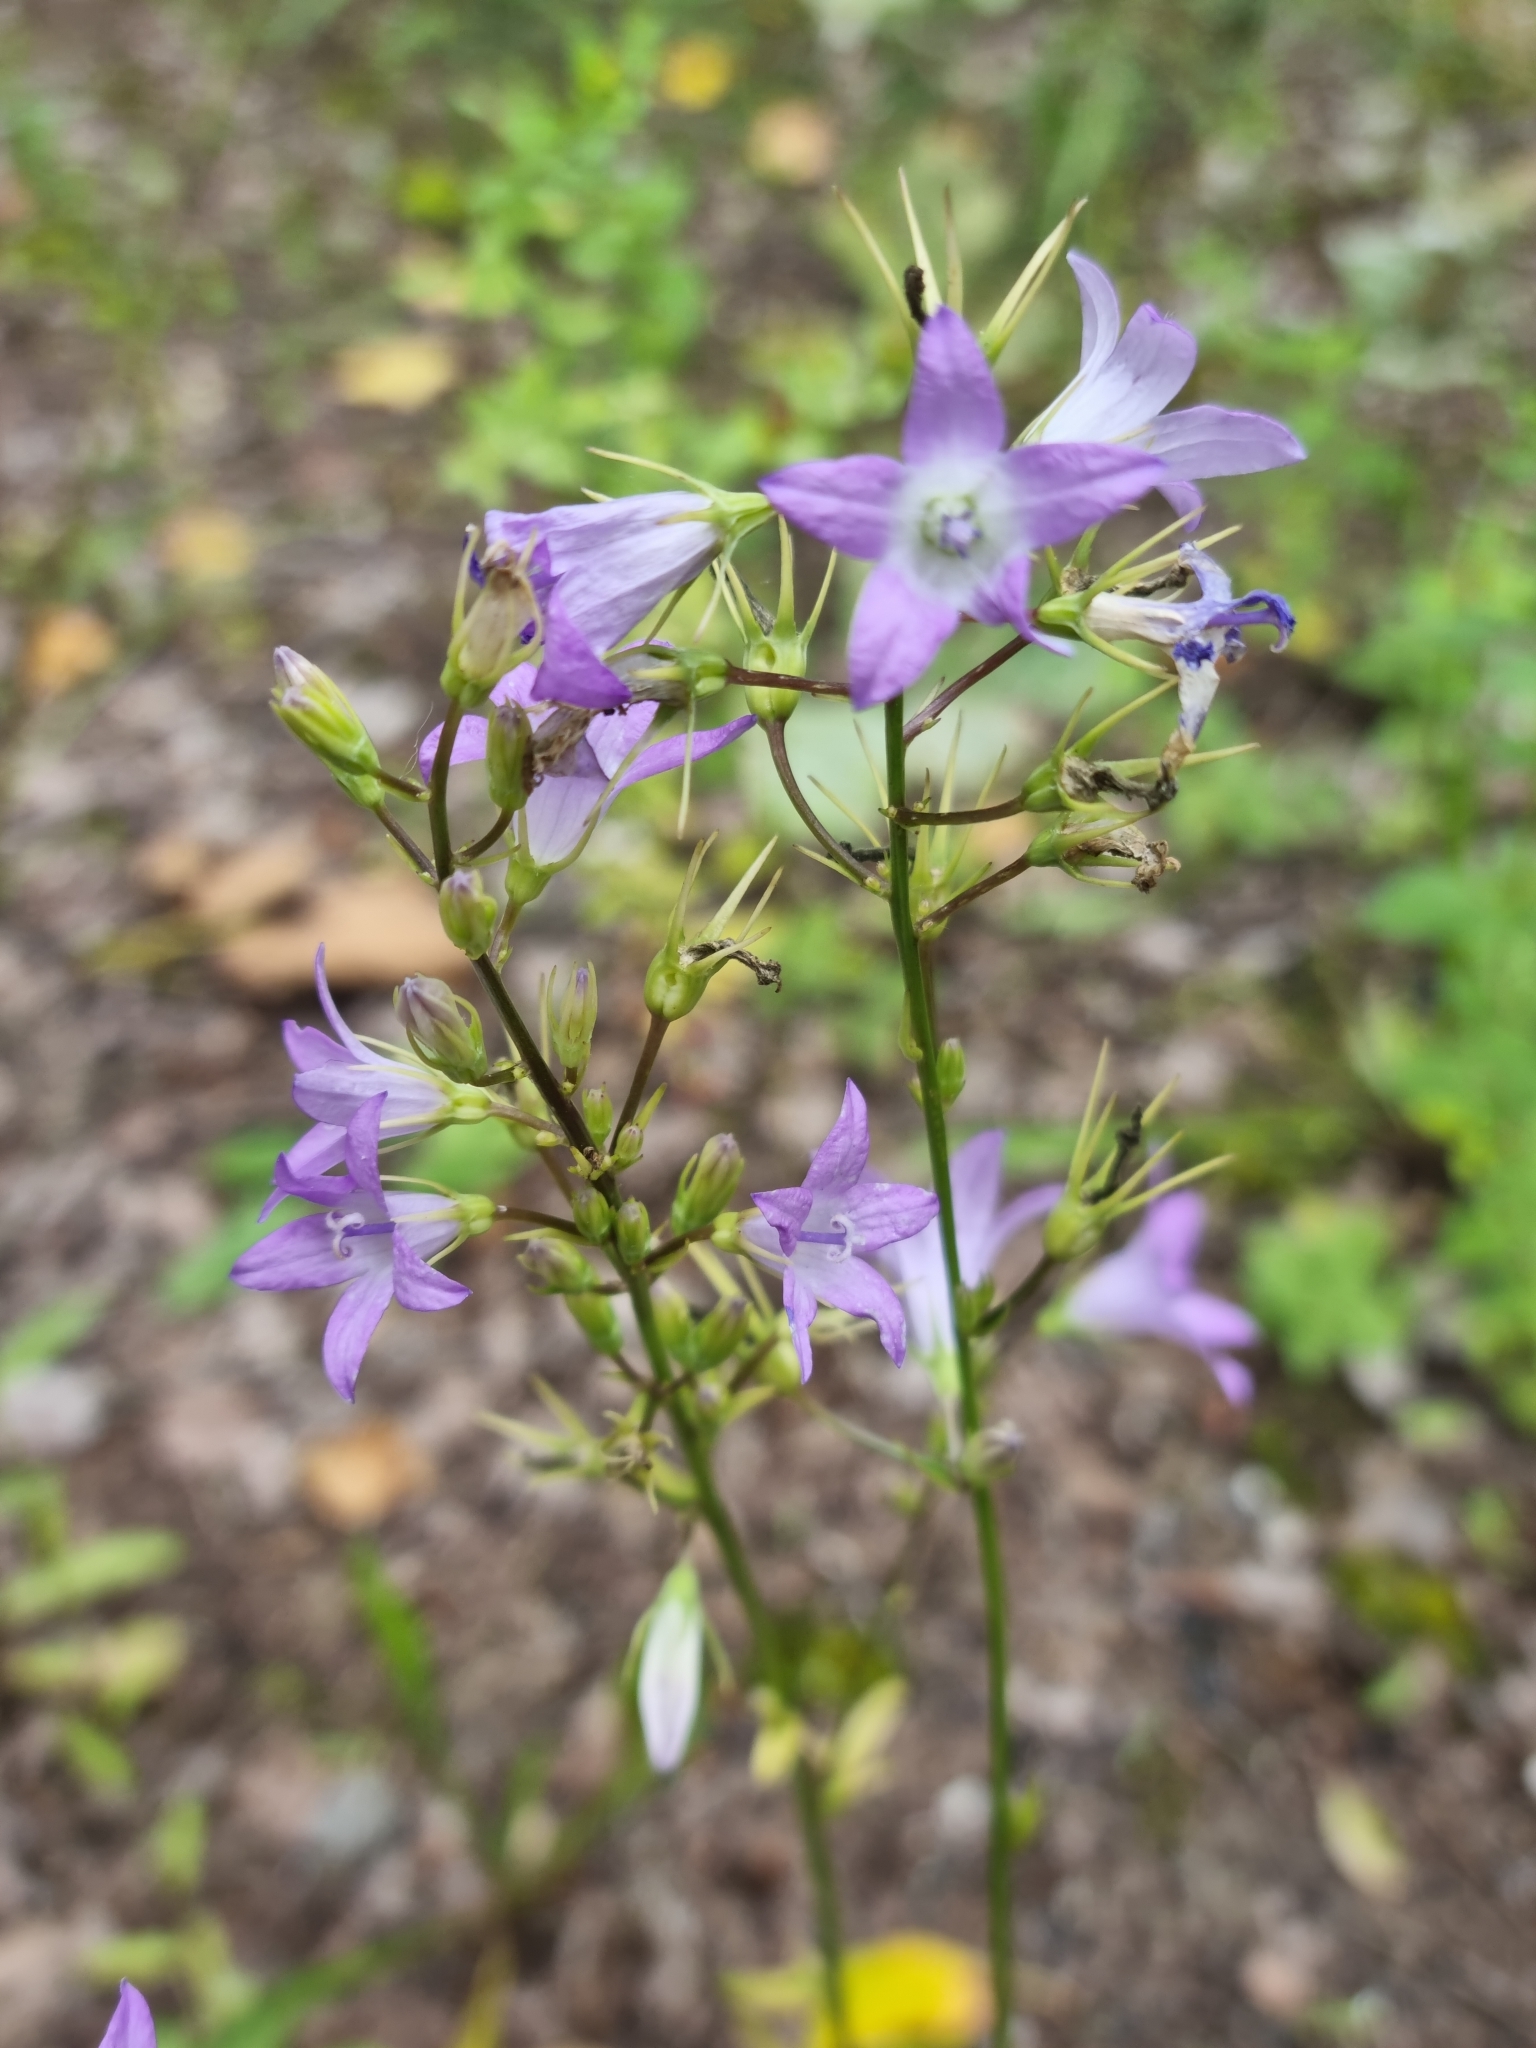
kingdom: Plantae
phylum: Tracheophyta
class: Magnoliopsida
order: Asterales
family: Campanulaceae
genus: Campanula
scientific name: Campanula rapunculus
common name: Rampion bellflower
